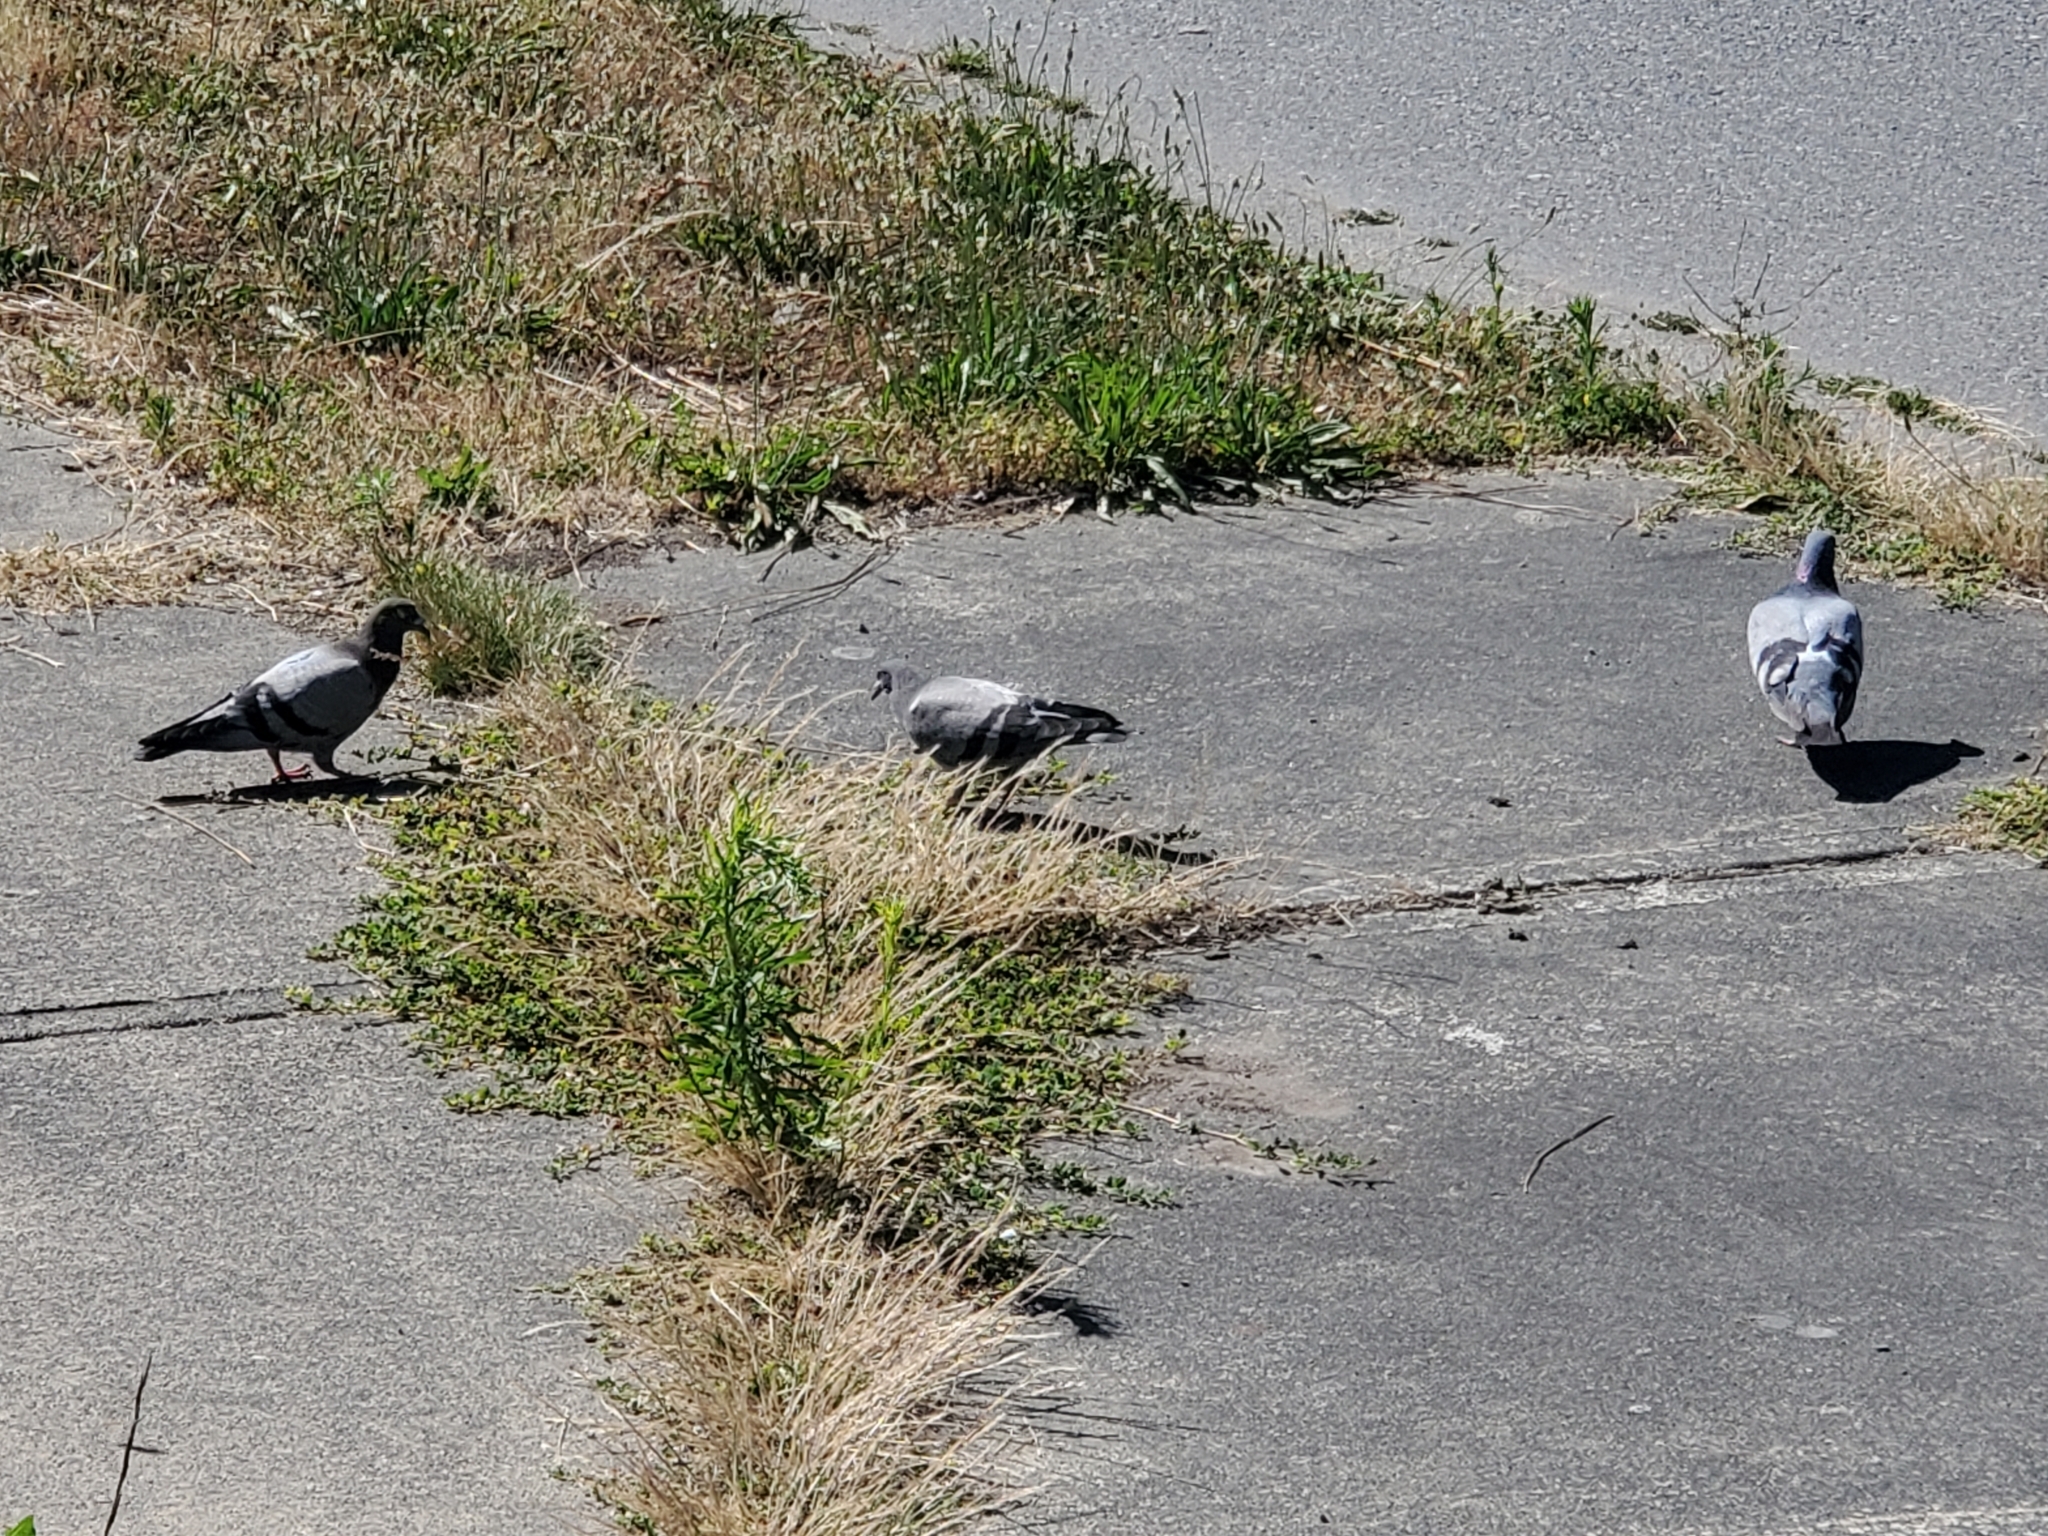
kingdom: Animalia
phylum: Chordata
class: Aves
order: Columbiformes
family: Columbidae
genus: Columba
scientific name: Columba livia
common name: Rock pigeon
